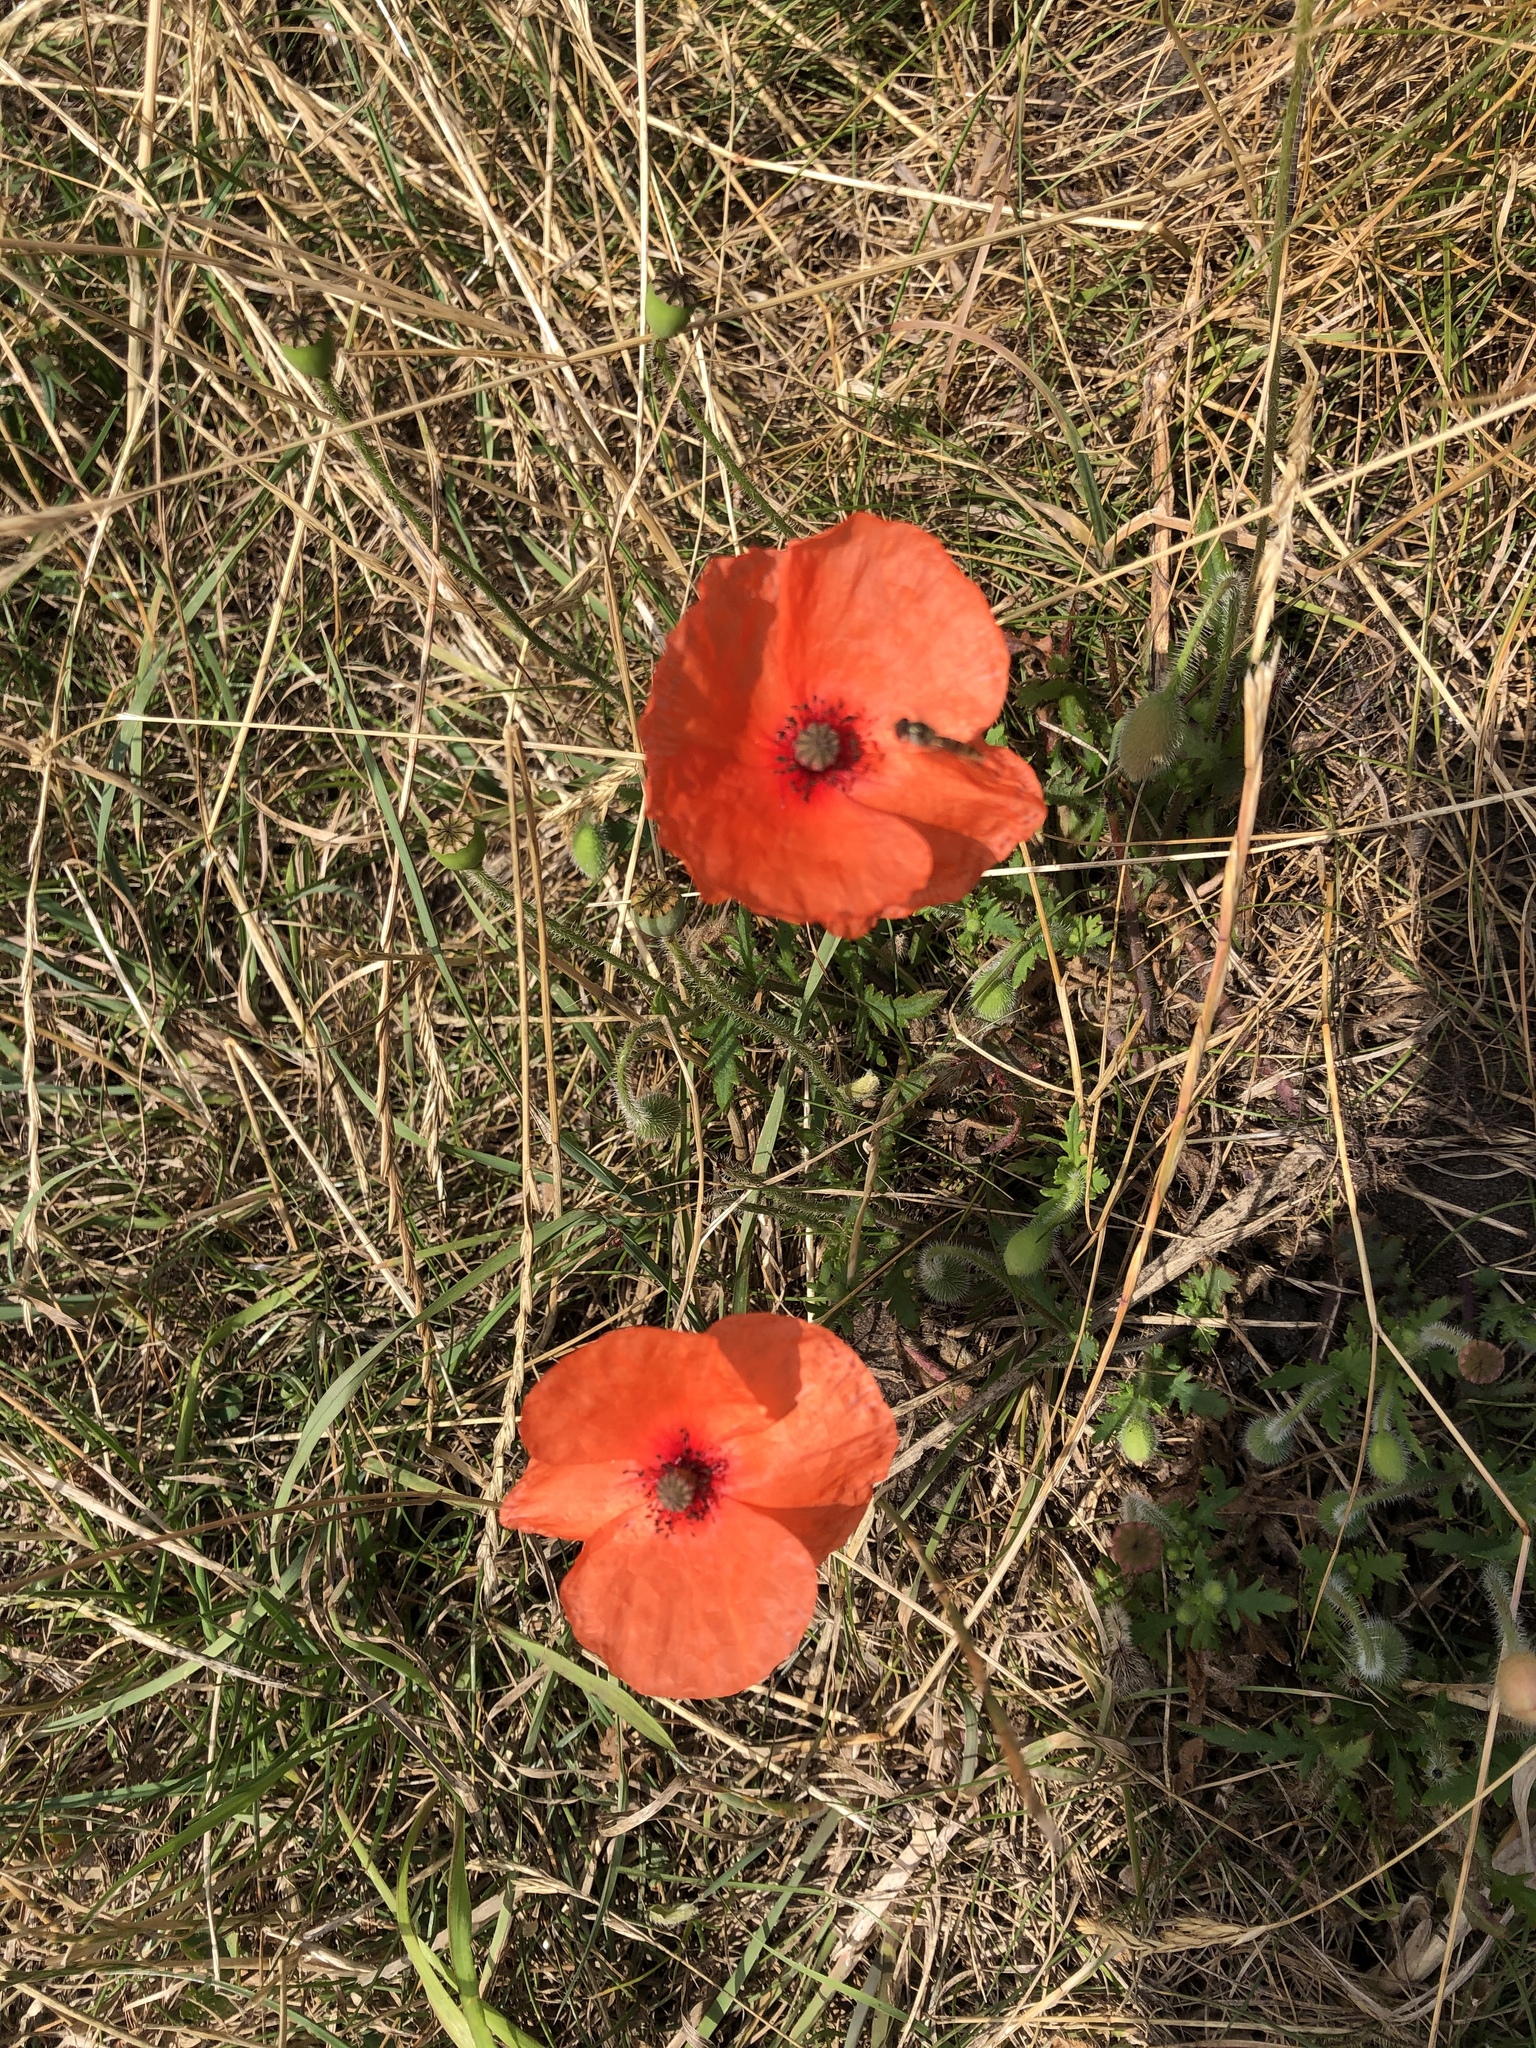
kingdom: Plantae
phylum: Tracheophyta
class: Magnoliopsida
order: Ranunculales
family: Papaveraceae
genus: Papaver
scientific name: Papaver rhoeas
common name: Corn poppy
